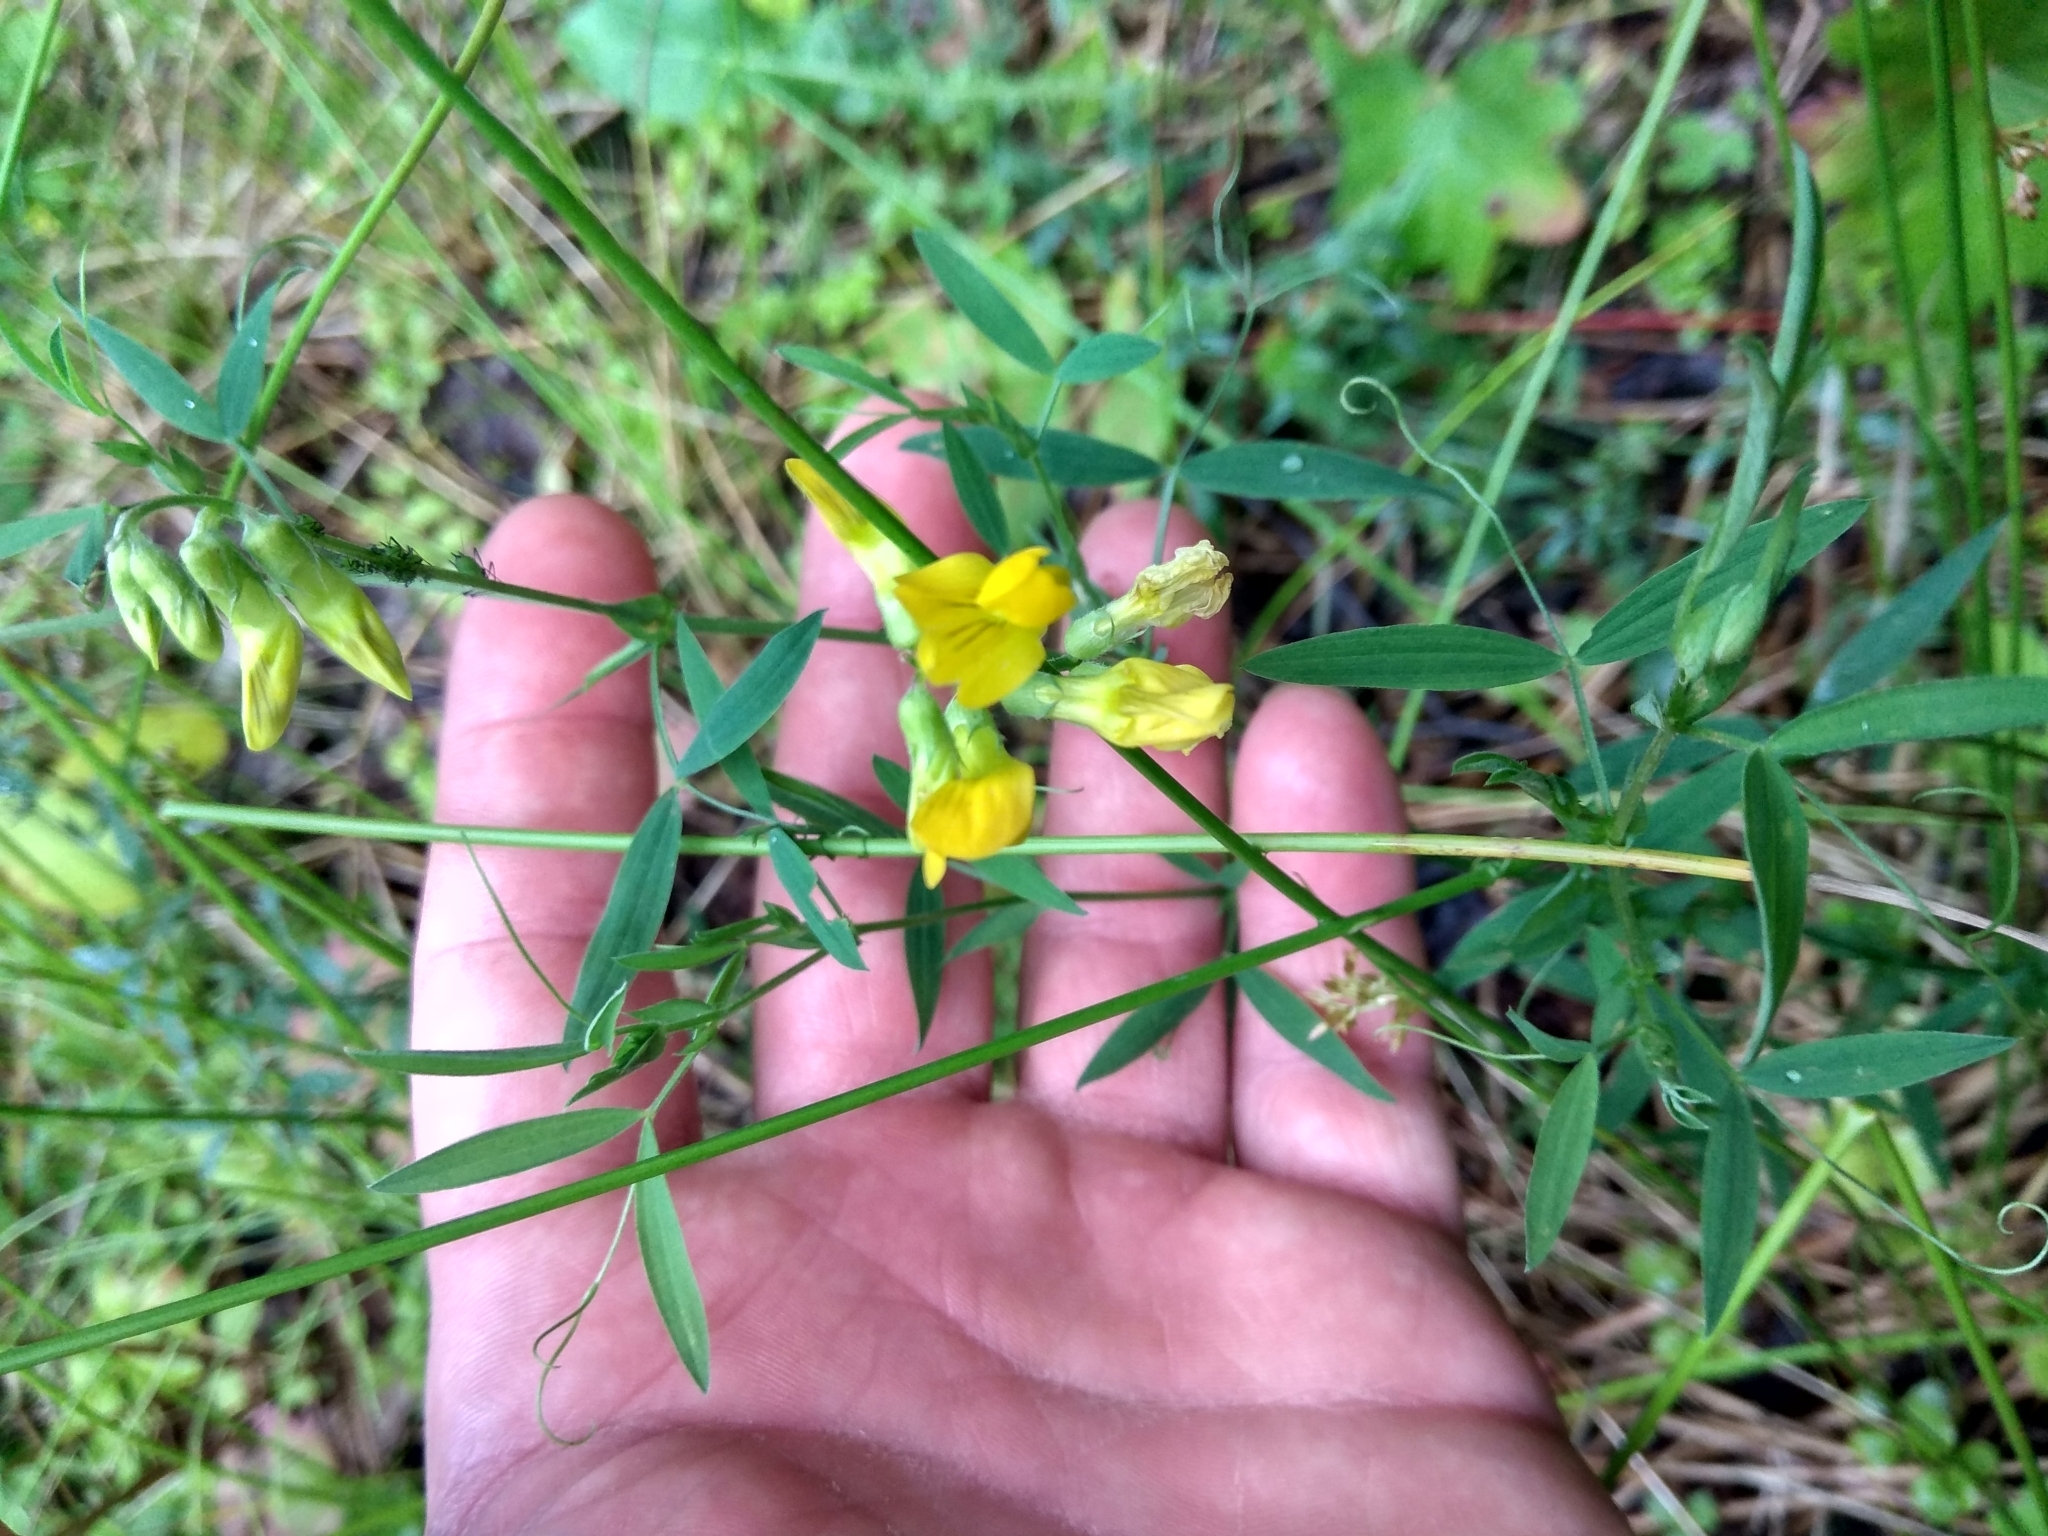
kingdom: Plantae
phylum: Tracheophyta
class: Magnoliopsida
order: Fabales
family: Fabaceae
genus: Lathyrus
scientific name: Lathyrus pratensis
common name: Meadow vetchling
